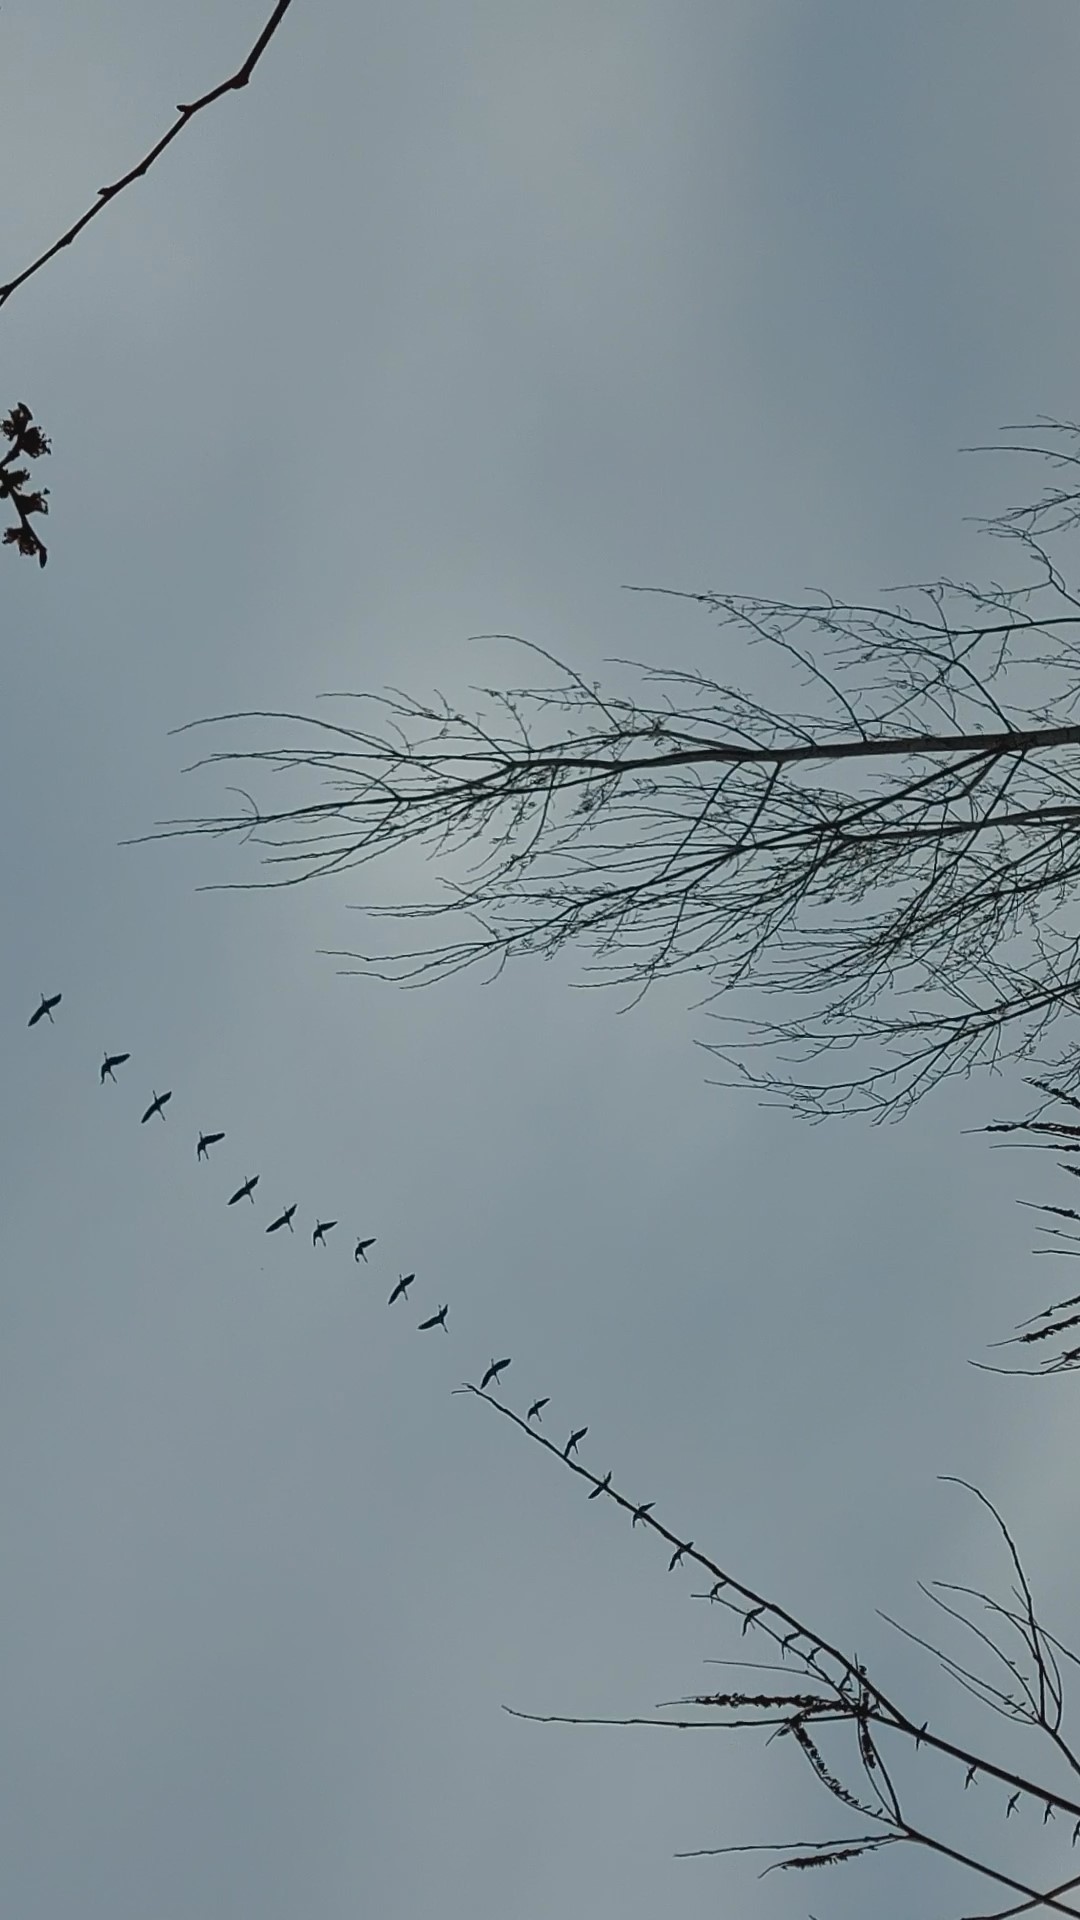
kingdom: Animalia
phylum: Chordata
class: Aves
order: Gruiformes
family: Gruidae
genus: Grus
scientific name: Grus grus
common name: Common crane
